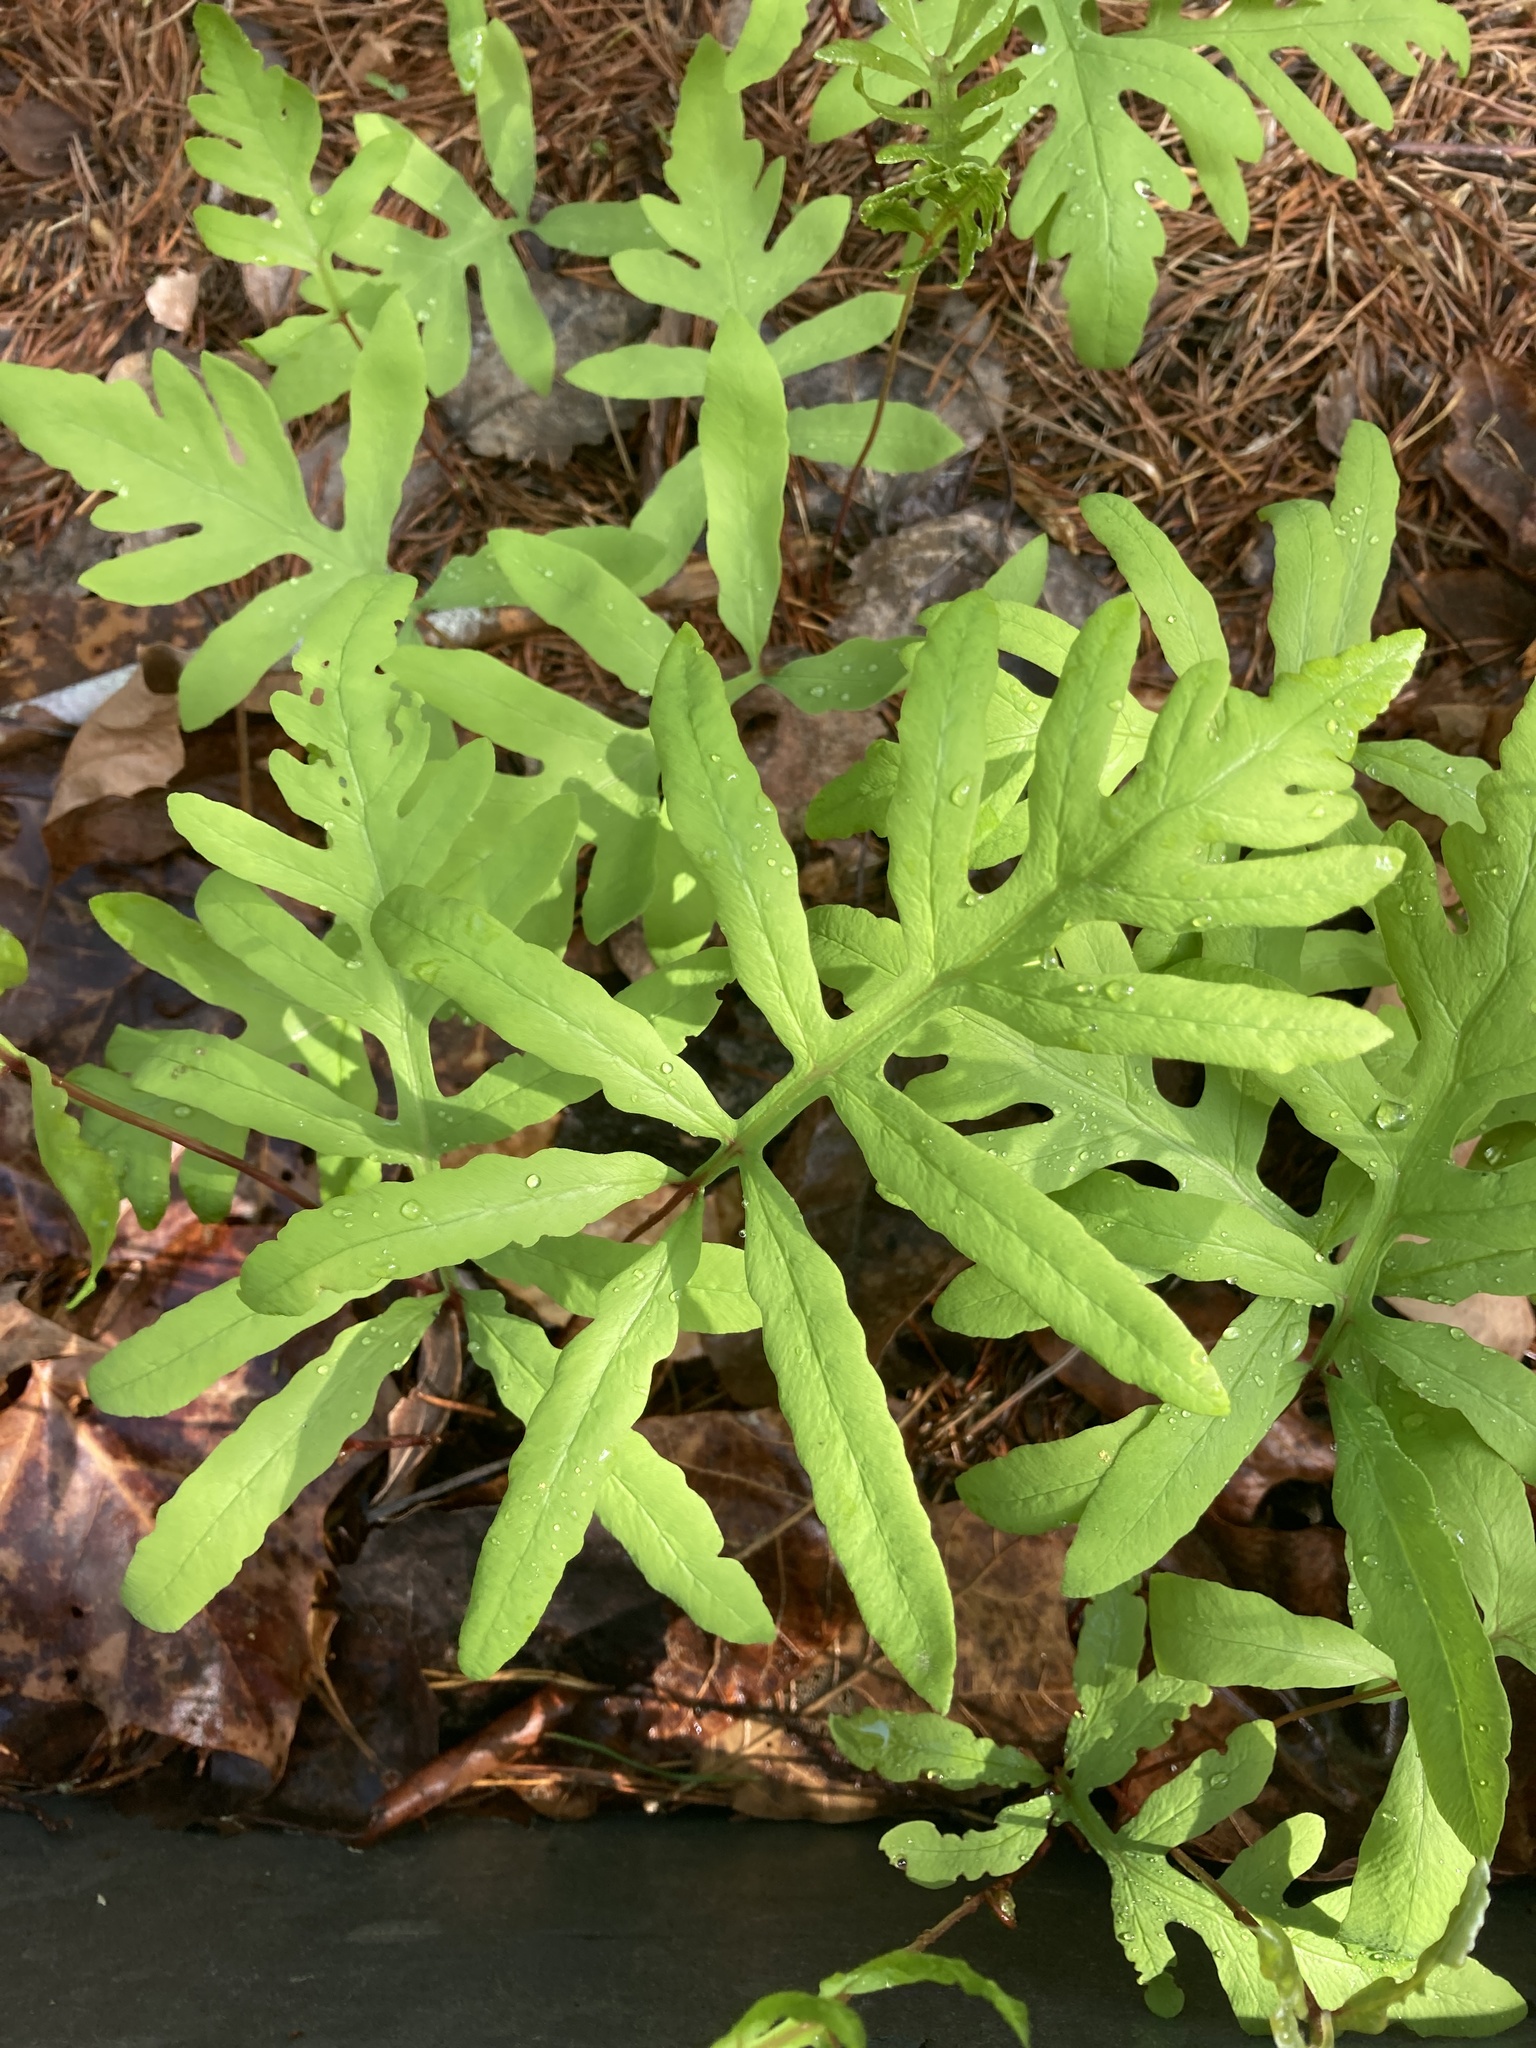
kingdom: Plantae
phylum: Tracheophyta
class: Polypodiopsida
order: Polypodiales
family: Onocleaceae
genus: Onoclea
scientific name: Onoclea sensibilis
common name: Sensitive fern
